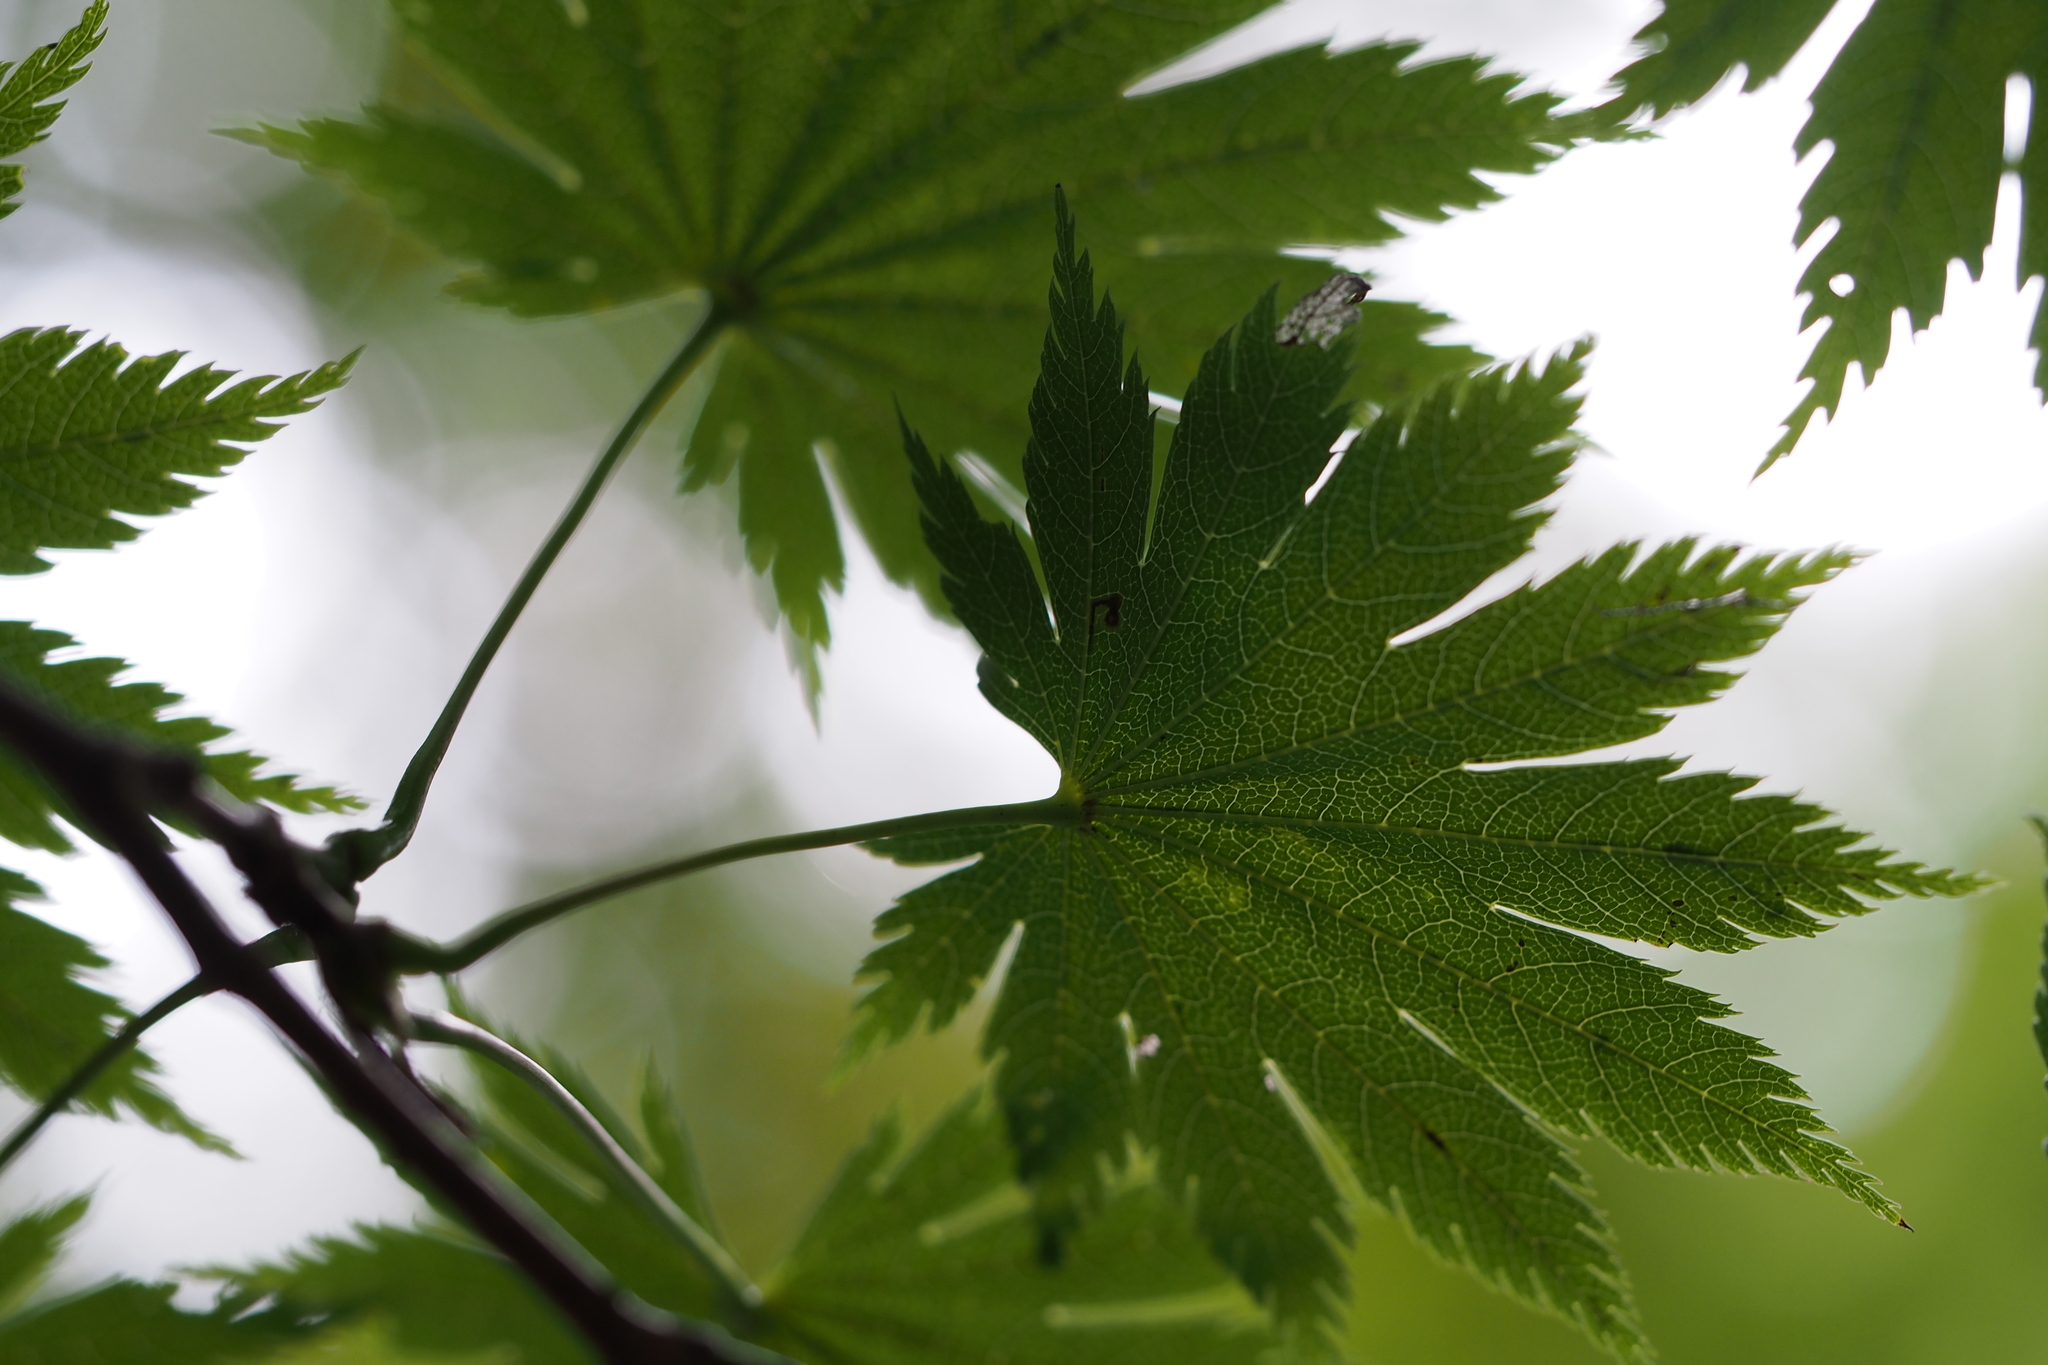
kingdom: Plantae
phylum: Tracheophyta
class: Magnoliopsida
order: Sapindales
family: Sapindaceae
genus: Acer
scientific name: Acer shirasawanum
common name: Full moon maple
